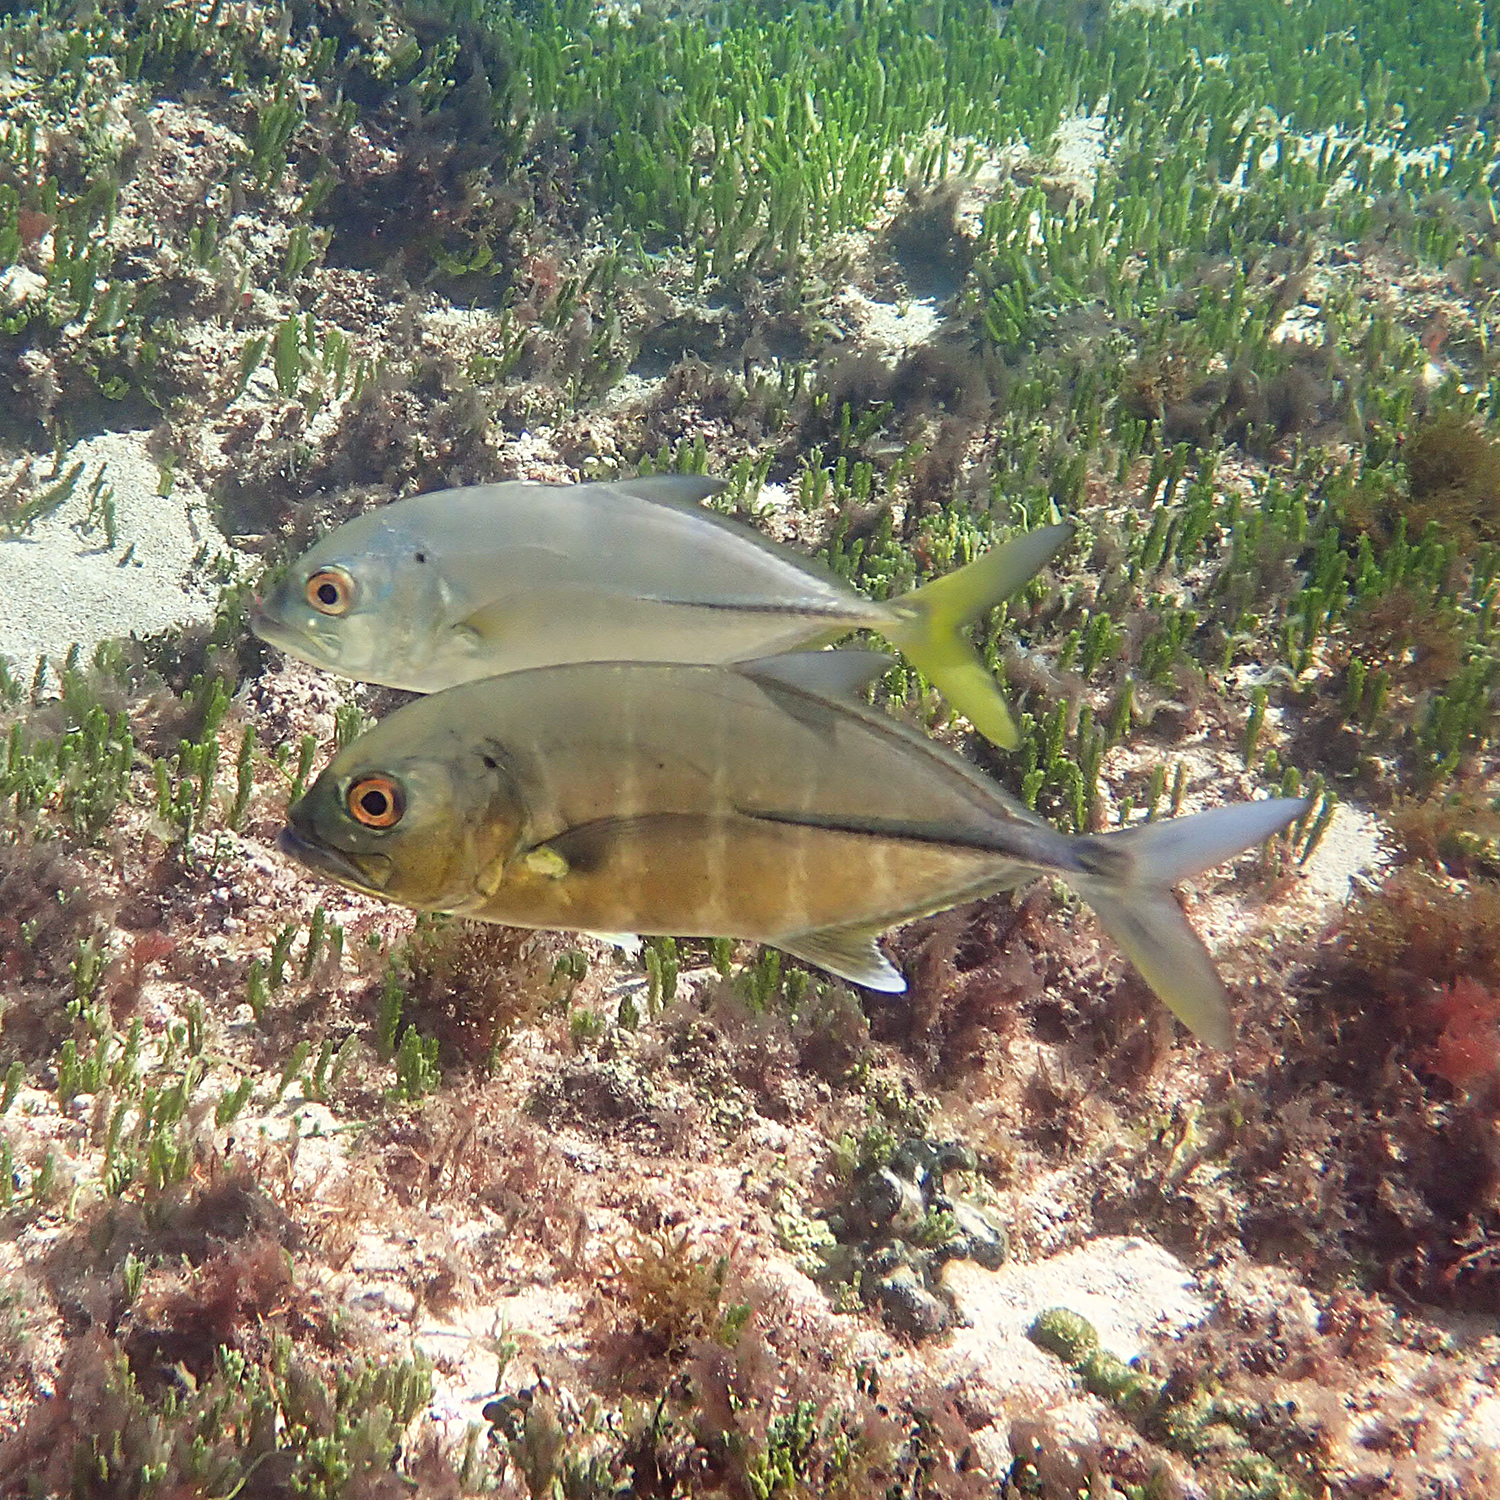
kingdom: Animalia
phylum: Chordata
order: Perciformes
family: Carangidae
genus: Pseudocaranx
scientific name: Pseudocaranx dentex
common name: White trevally
